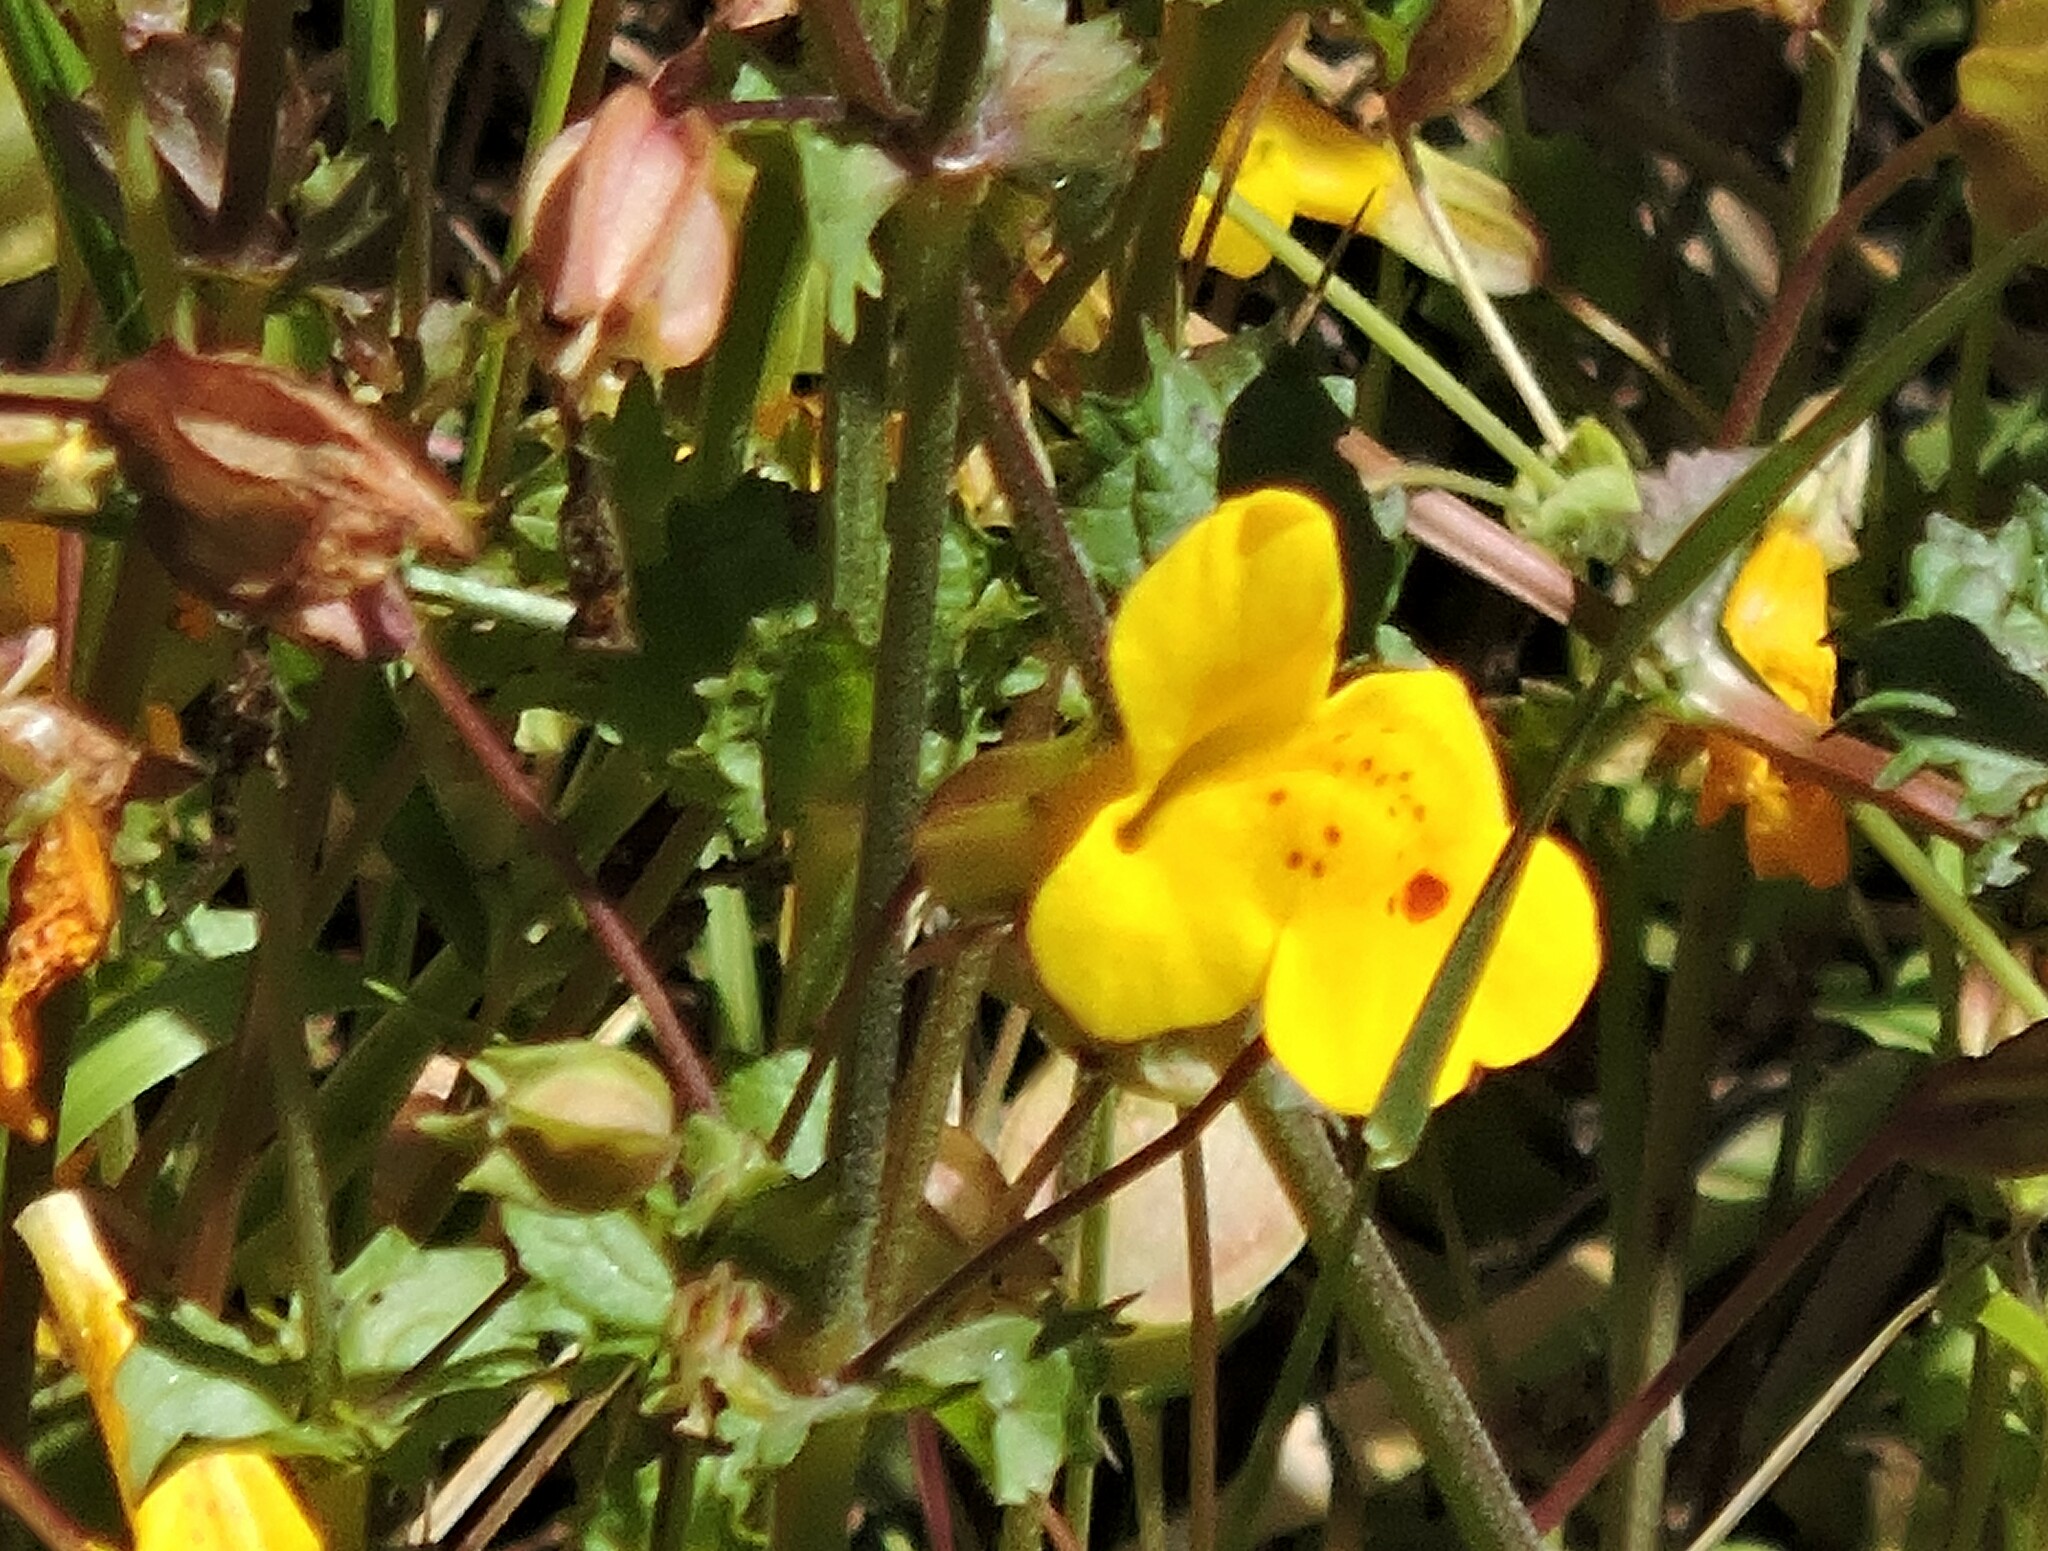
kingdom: Plantae
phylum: Tracheophyta
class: Magnoliopsida
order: Lamiales
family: Phrymaceae
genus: Erythranthe
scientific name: Erythranthe guttata
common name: Monkeyflower
